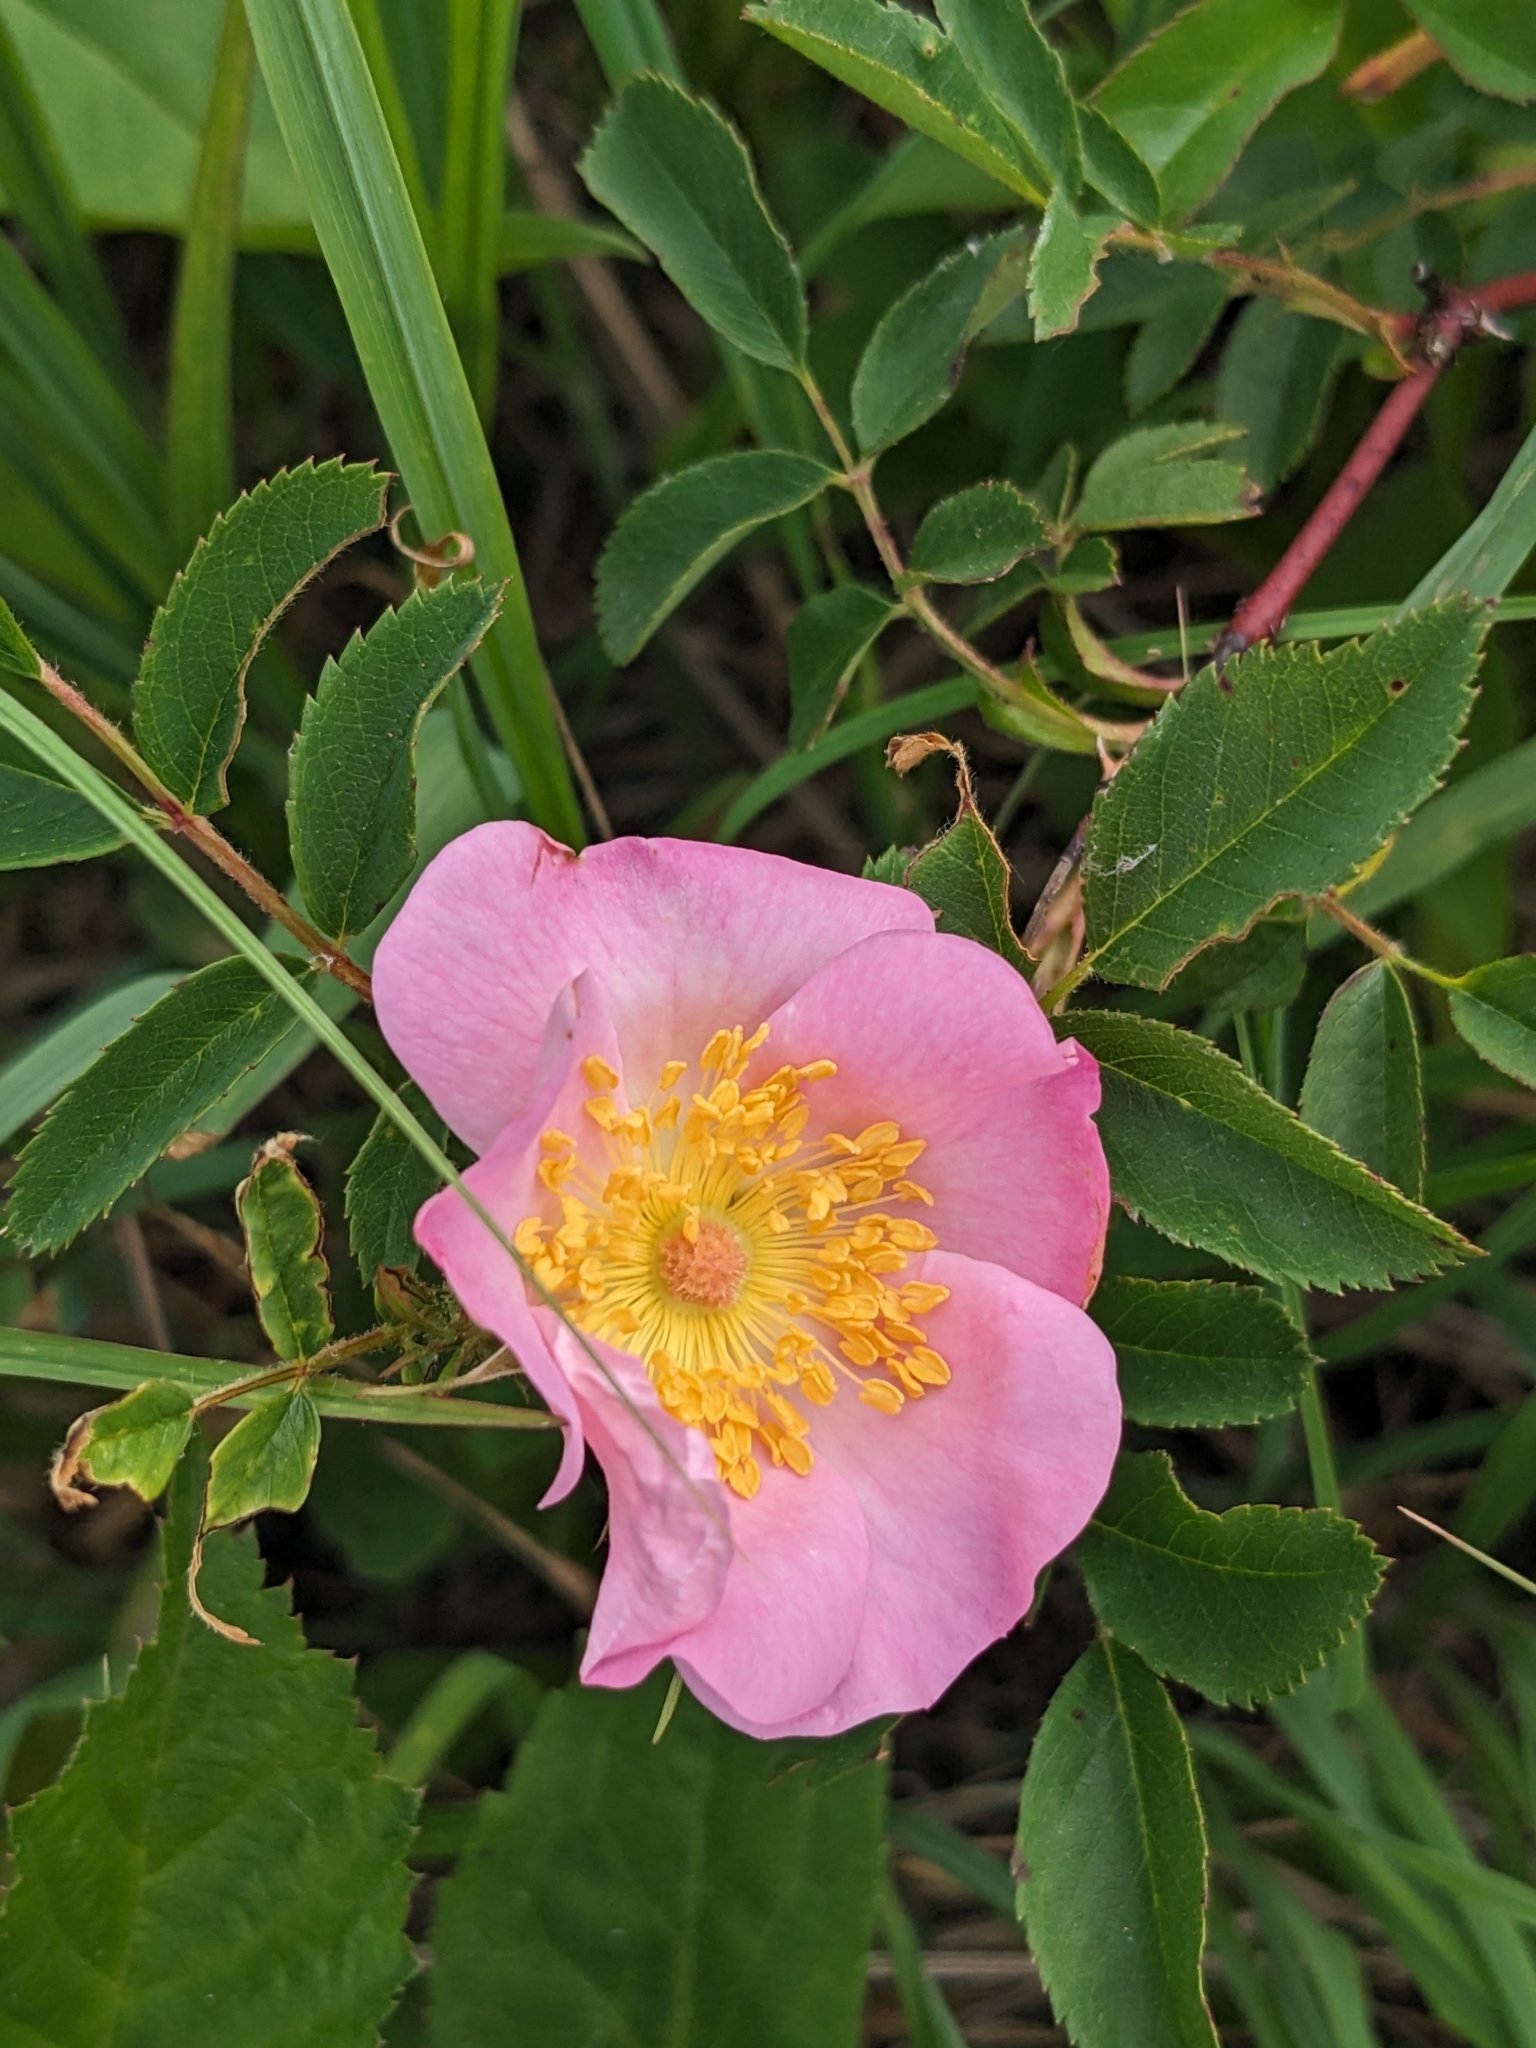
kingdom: Plantae
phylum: Tracheophyta
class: Magnoliopsida
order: Rosales
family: Rosaceae
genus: Rosa
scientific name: Rosa carolina
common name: Pasture rose
